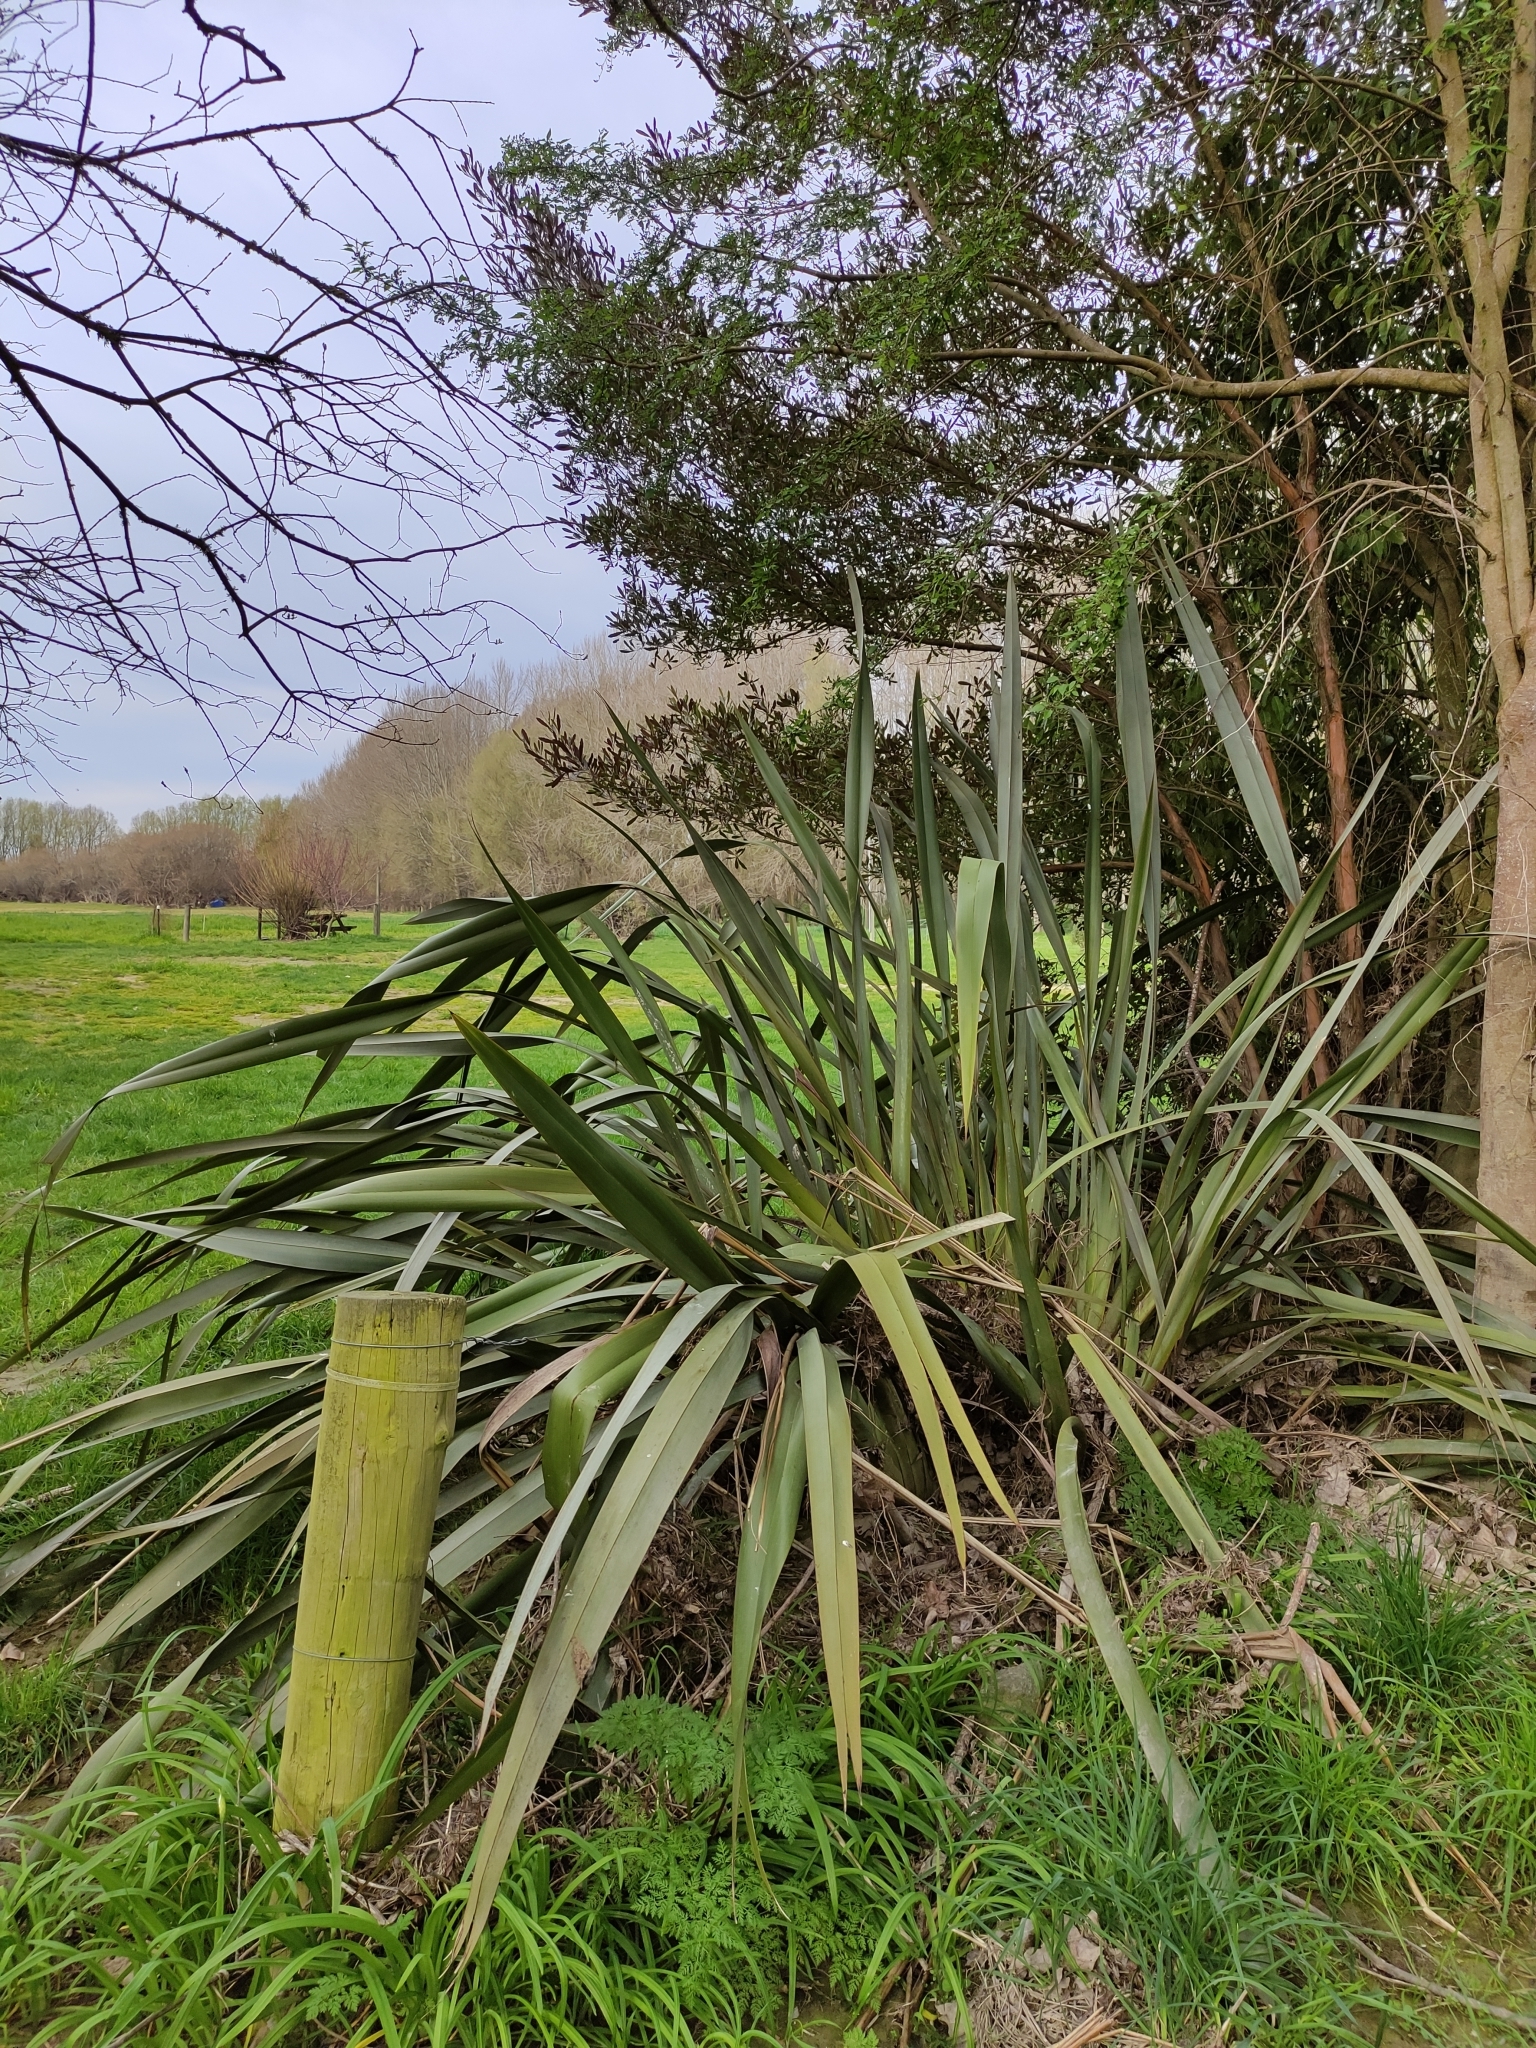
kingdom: Plantae
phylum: Tracheophyta
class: Liliopsida
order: Asparagales
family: Asphodelaceae
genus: Phormium
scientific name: Phormium tenax
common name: New zealand flax
